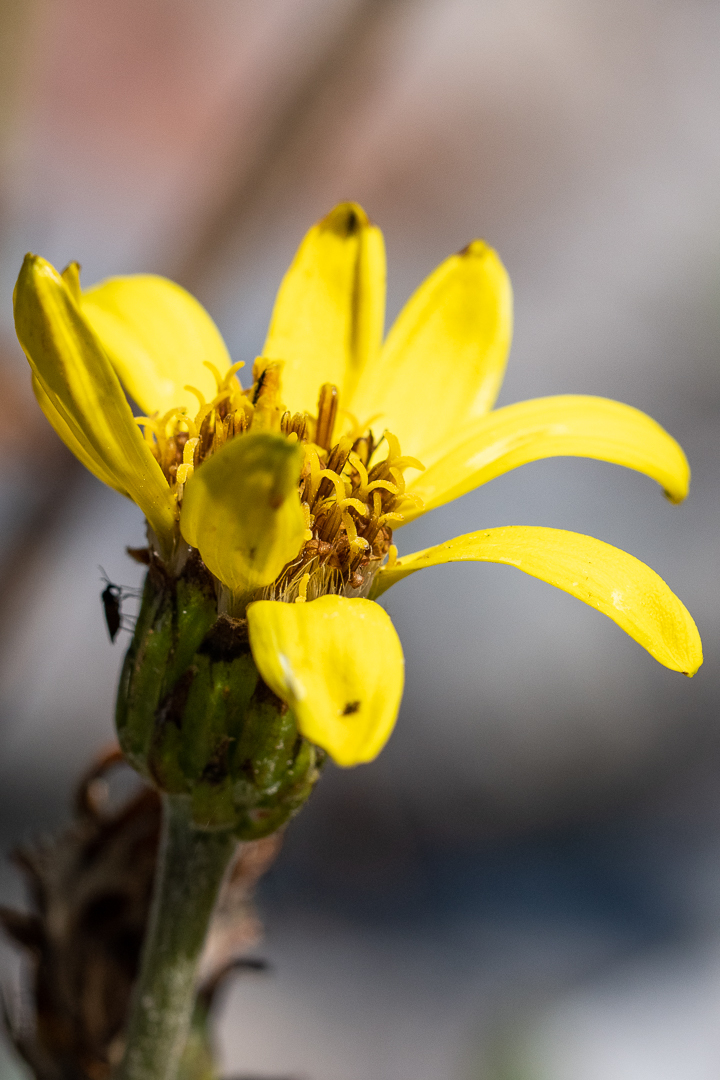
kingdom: Plantae
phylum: Tracheophyta
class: Magnoliopsida
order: Asterales
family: Asteraceae
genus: Capelio
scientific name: Capelio tabularis
